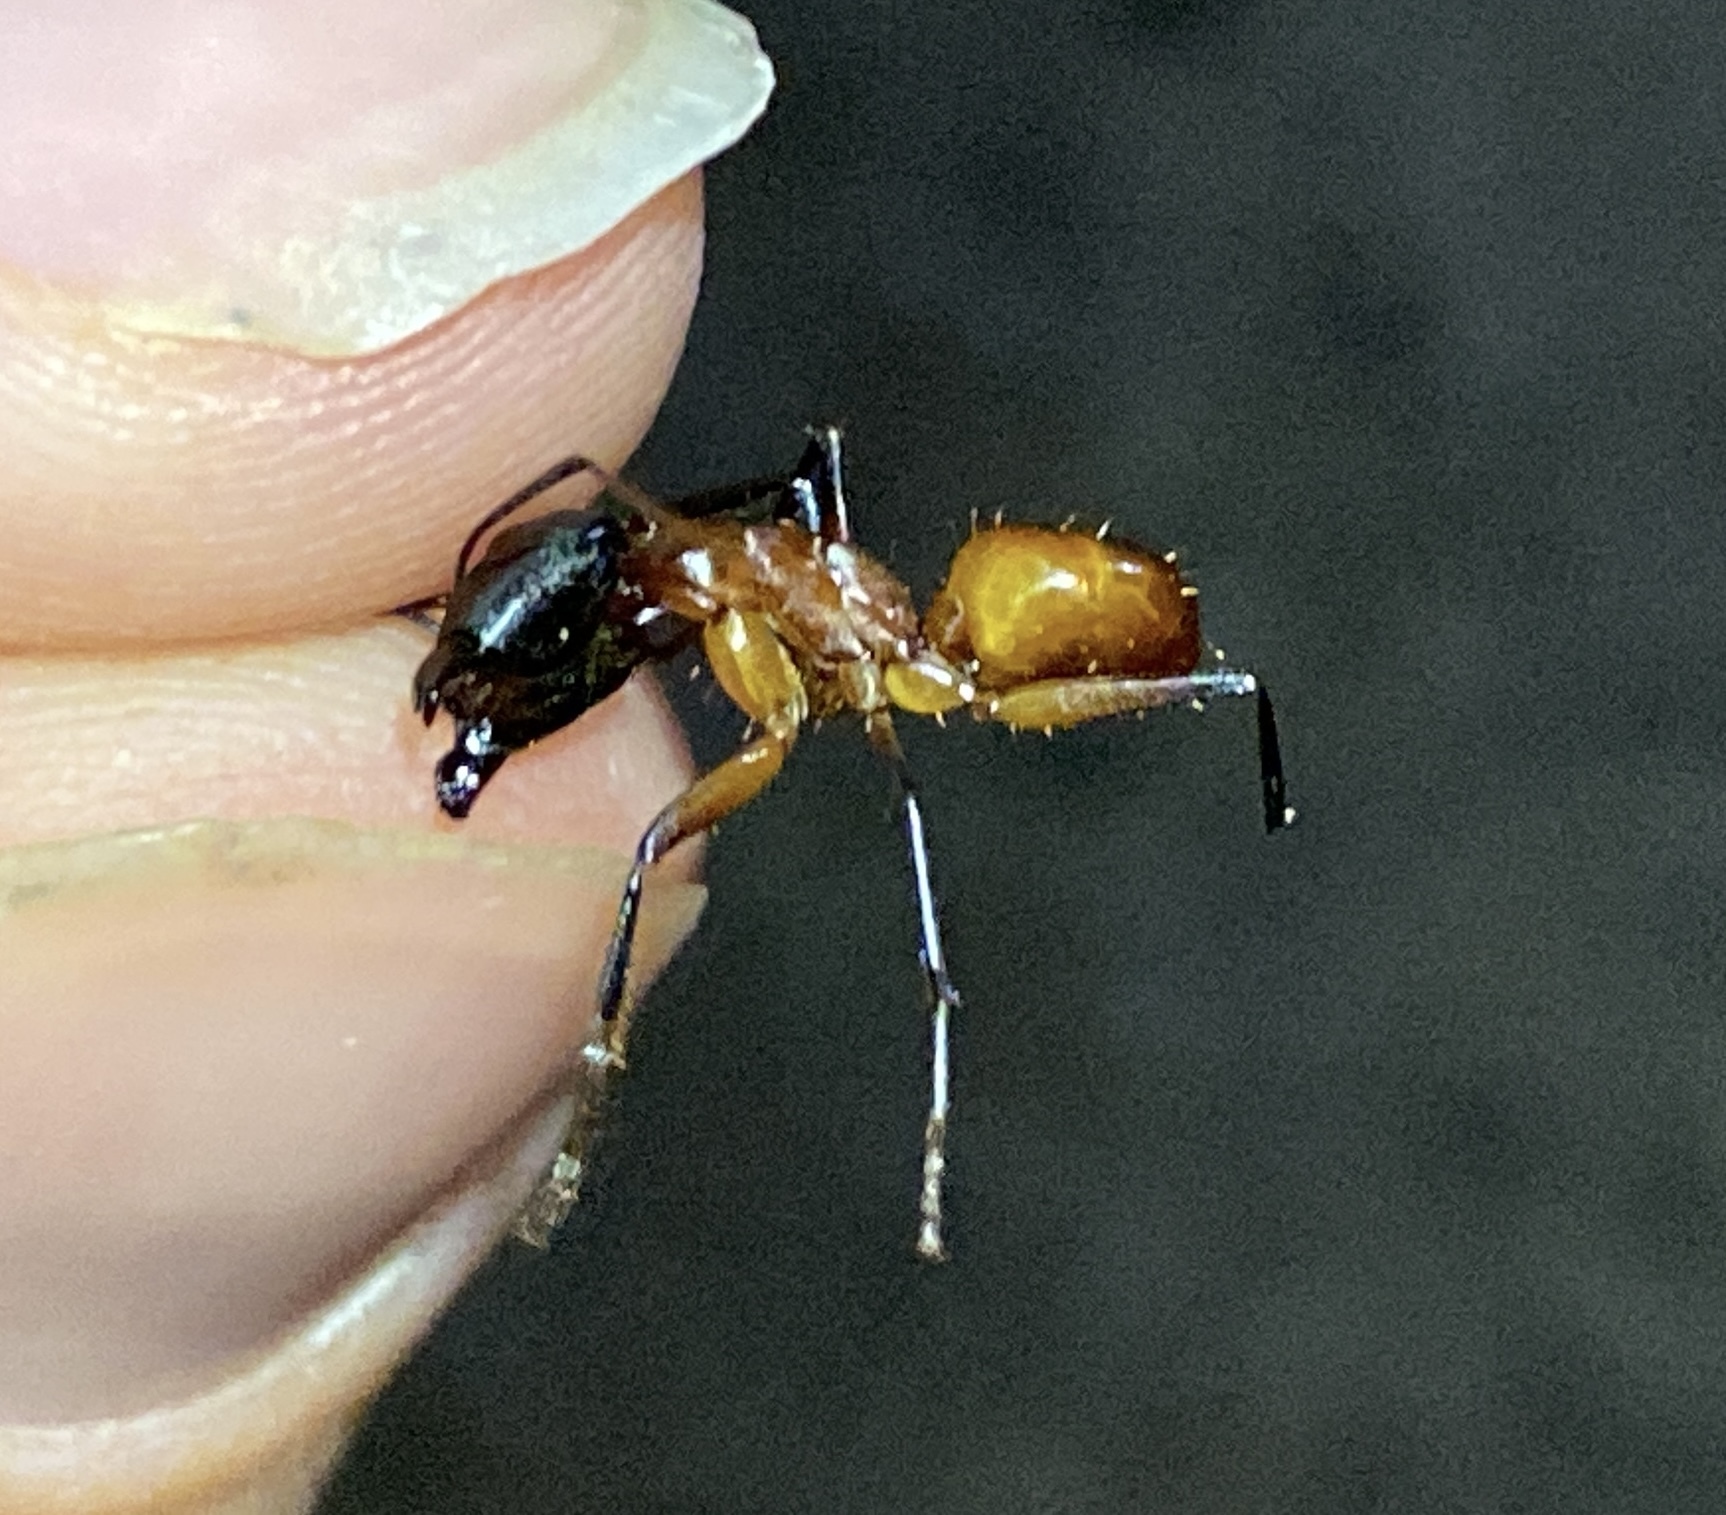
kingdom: Animalia
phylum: Arthropoda
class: Insecta
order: Hymenoptera
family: Formicidae
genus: Camponotus
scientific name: Camponotus ocreatus
